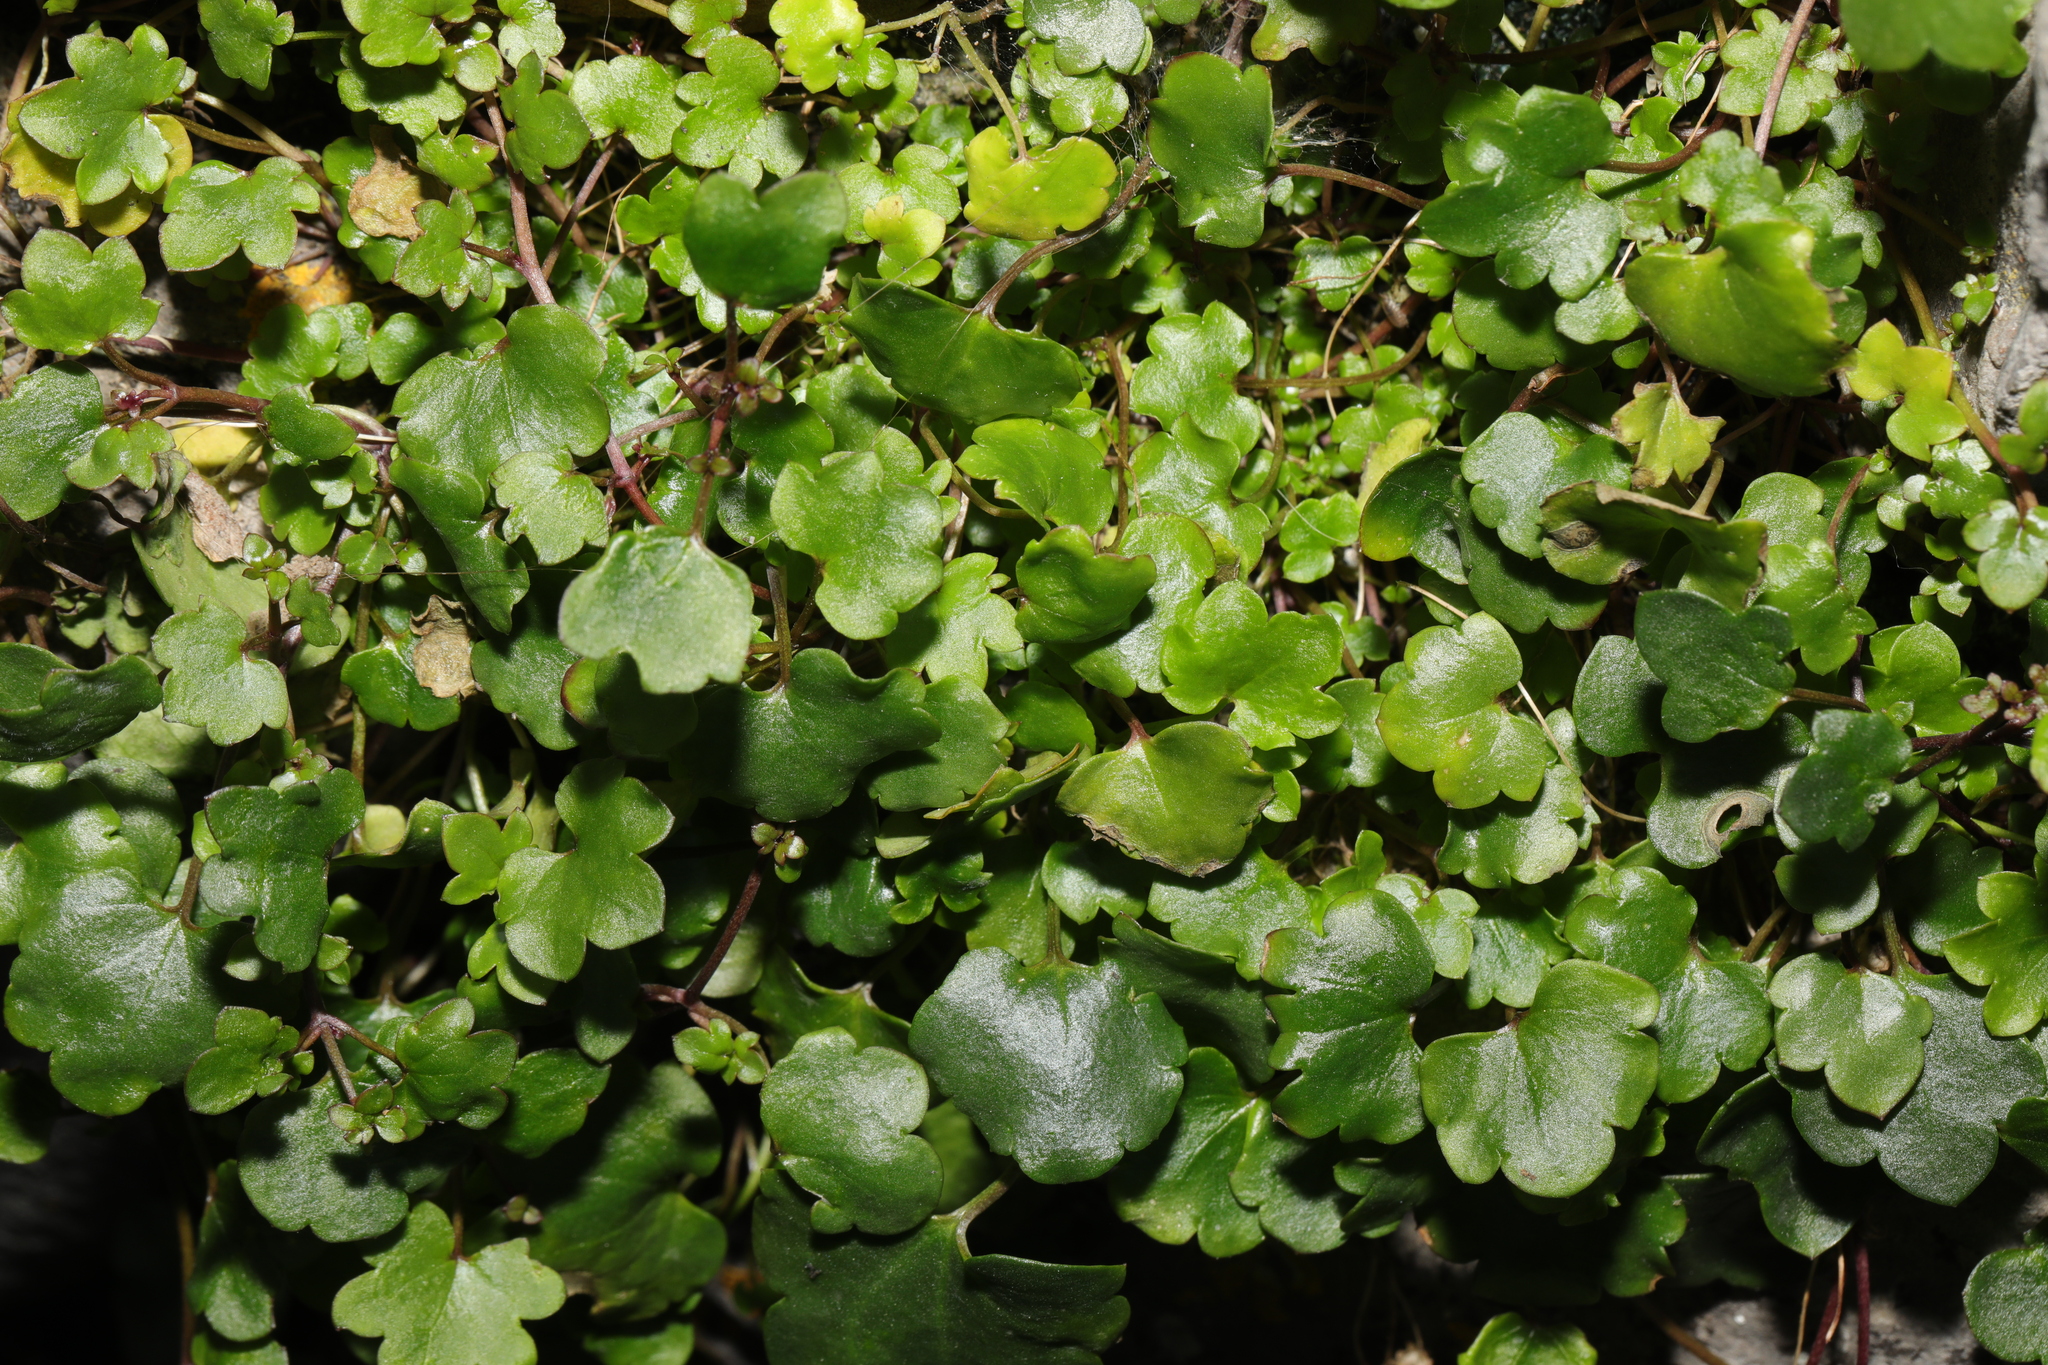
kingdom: Plantae
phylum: Tracheophyta
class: Magnoliopsida
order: Lamiales
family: Plantaginaceae
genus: Cymbalaria
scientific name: Cymbalaria muralis
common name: Ivy-leaved toadflax
